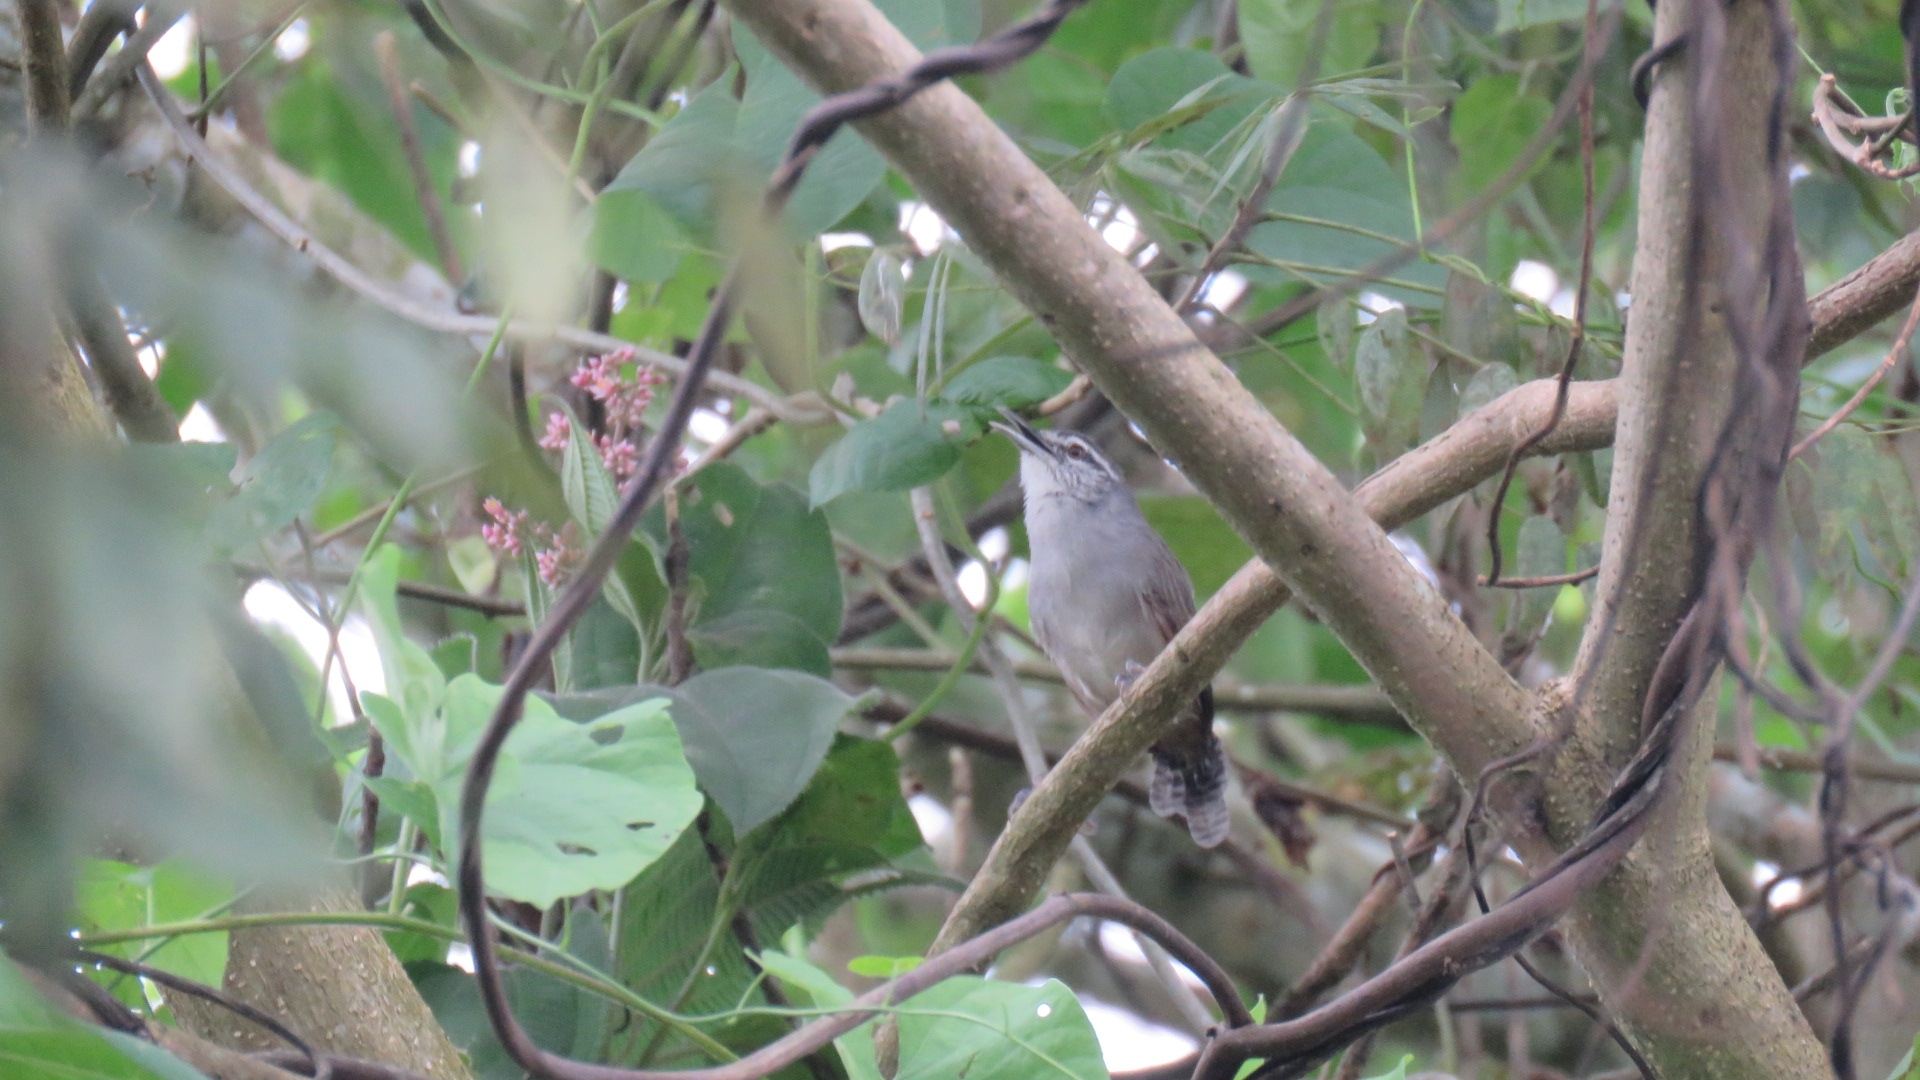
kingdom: Animalia
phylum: Chordata
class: Aves
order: Passeriformes
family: Troglodytidae
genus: Cantorchilus
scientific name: Cantorchilus modestus
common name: Cabanis's wren
